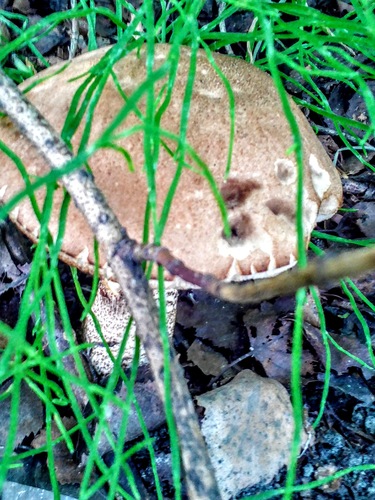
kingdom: Fungi
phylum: Basidiomycota
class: Agaricomycetes
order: Boletales
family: Boletaceae
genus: Leccinum
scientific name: Leccinum scabrum
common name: Blushing bolete
